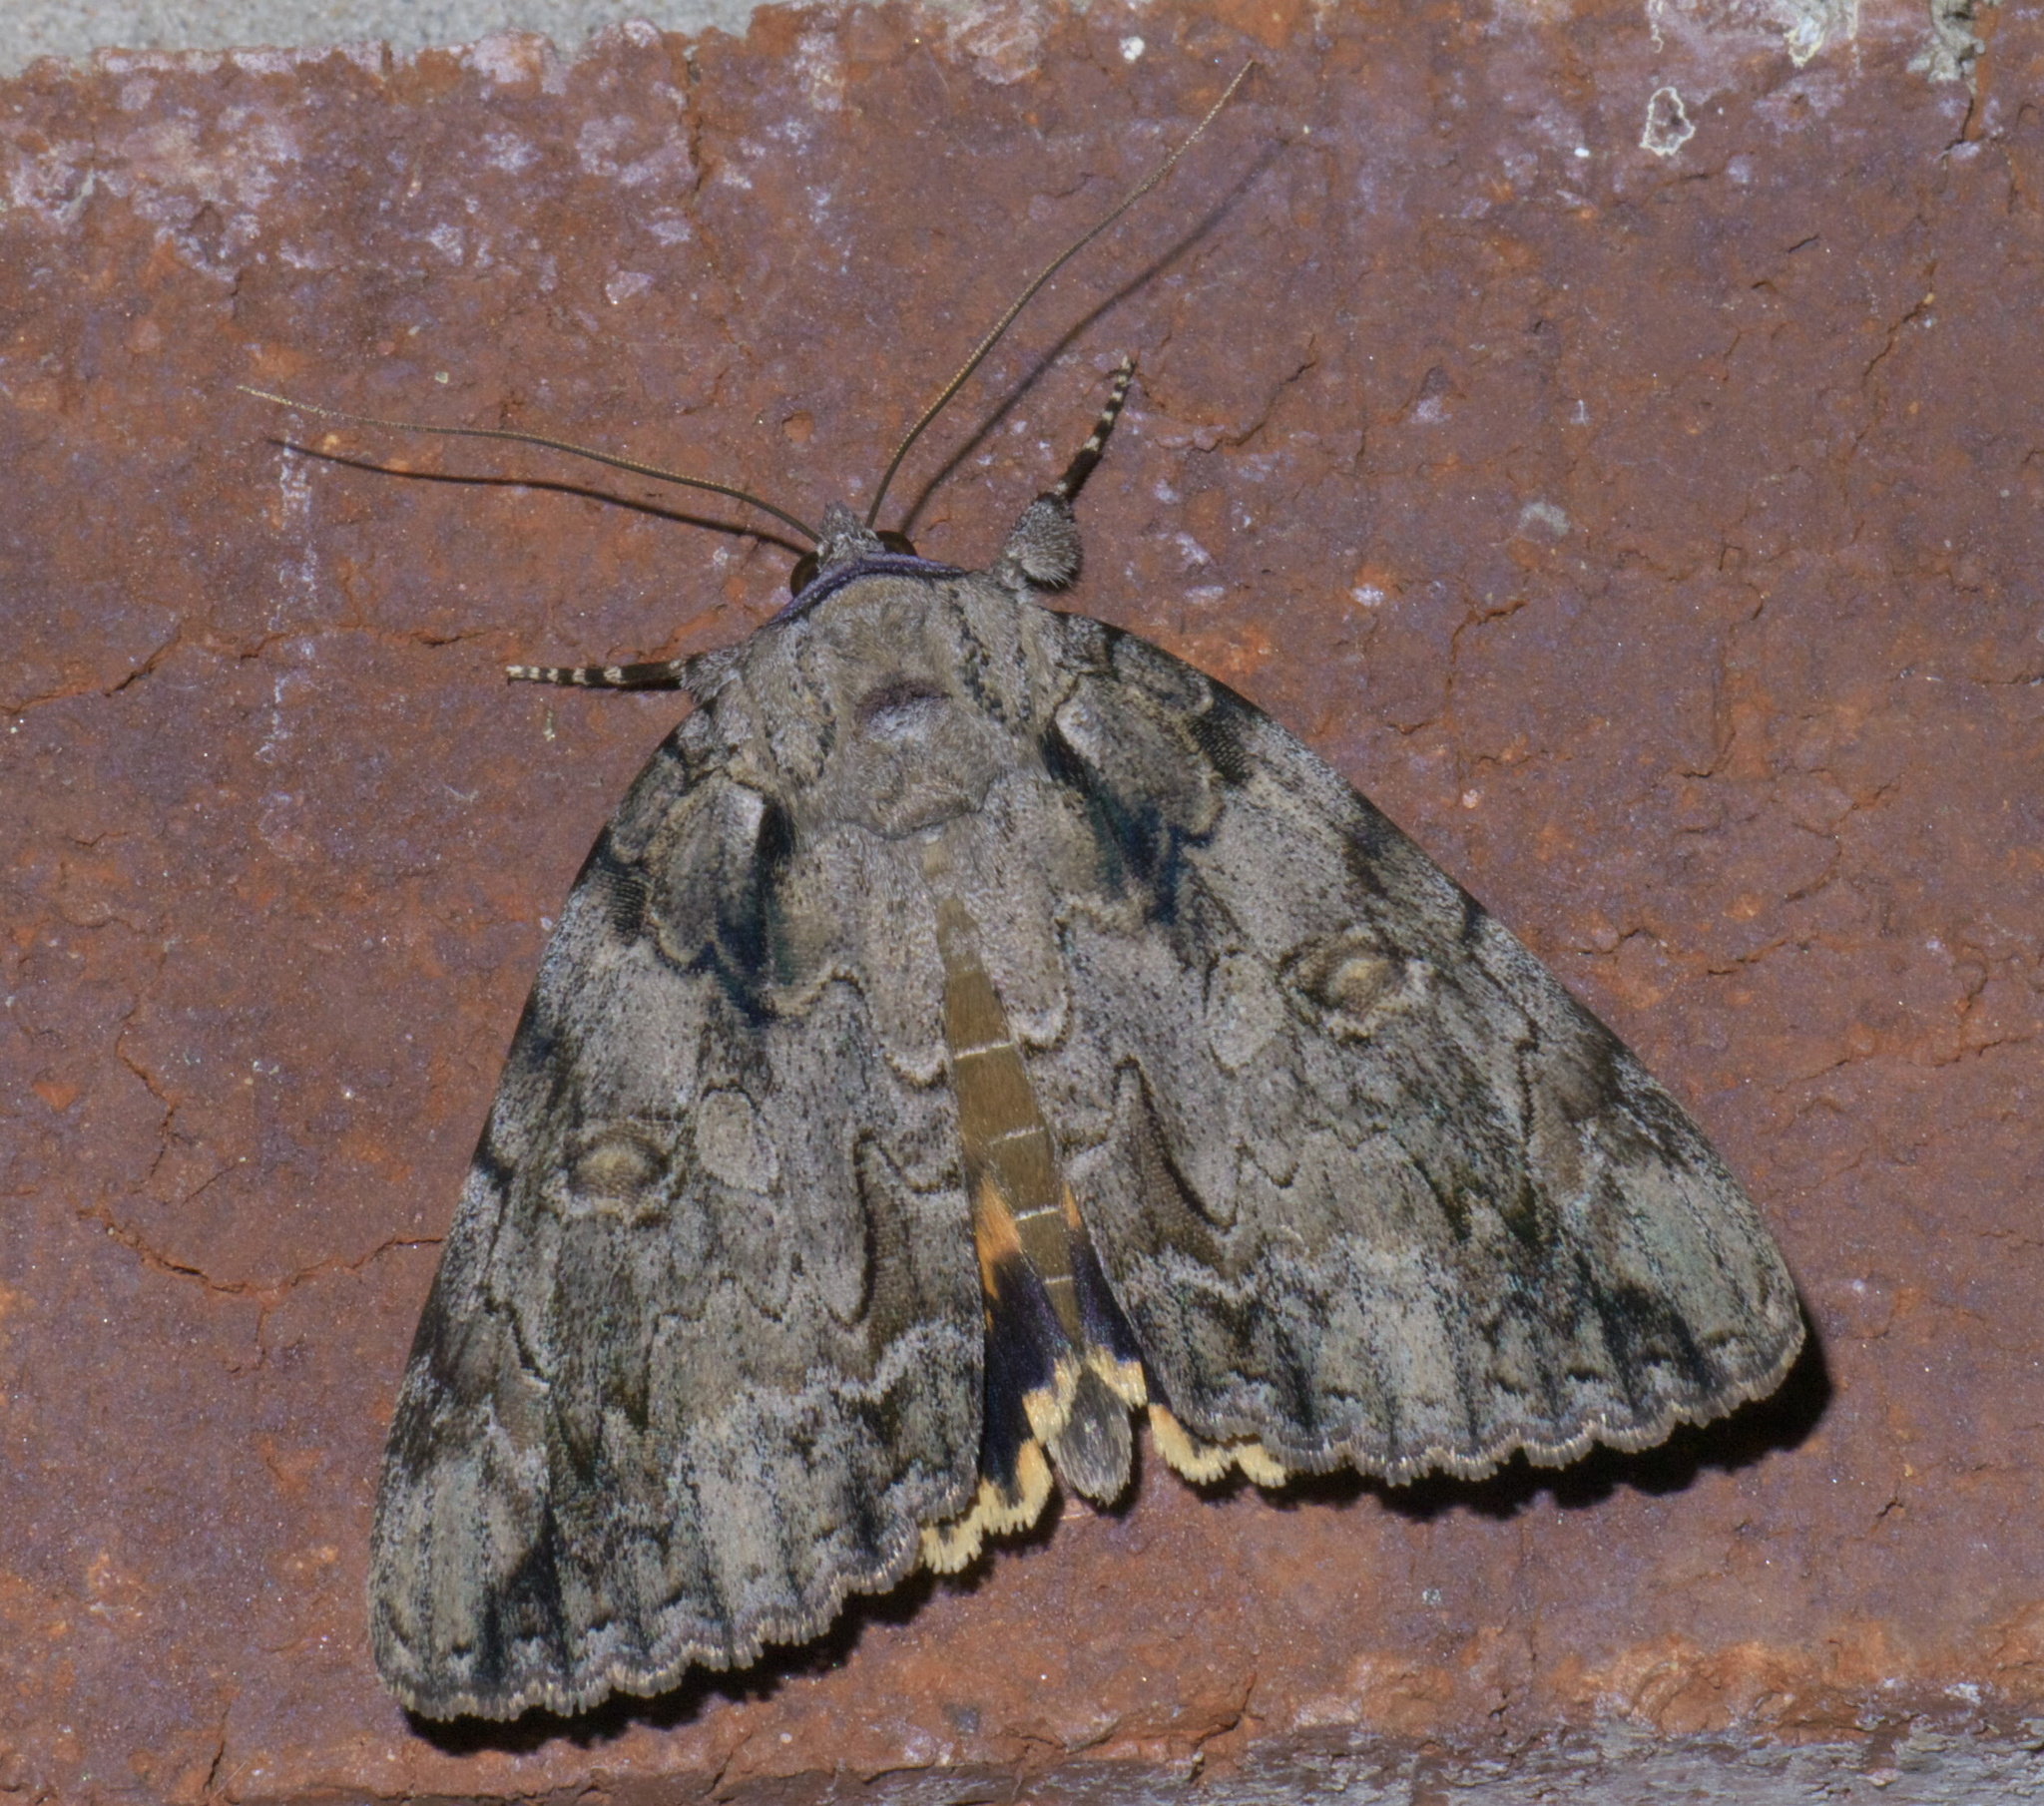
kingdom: Animalia
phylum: Arthropoda
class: Insecta
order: Lepidoptera
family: Erebidae
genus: Catocala
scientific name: Catocala neogama
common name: Bride underwing
